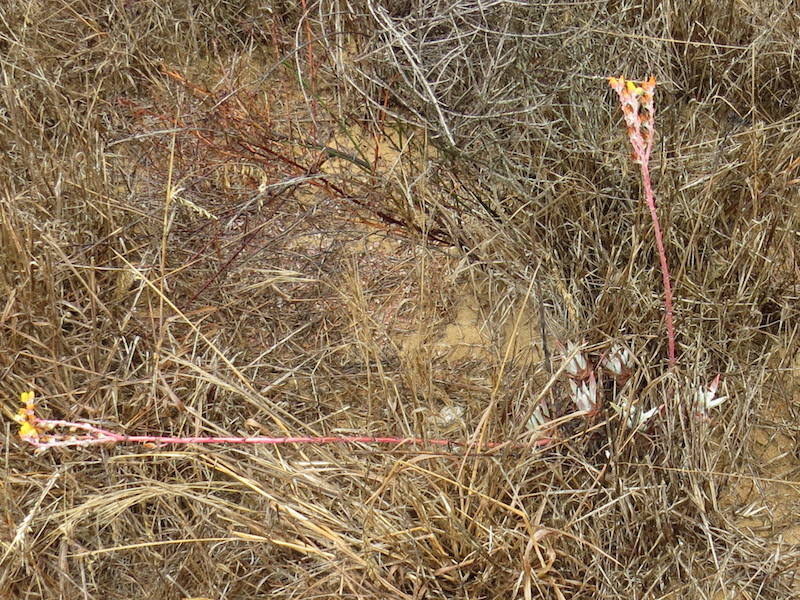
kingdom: Plantae
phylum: Tracheophyta
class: Magnoliopsida
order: Saxifragales
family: Crassulaceae
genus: Dudleya
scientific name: Dudleya caespitosa
